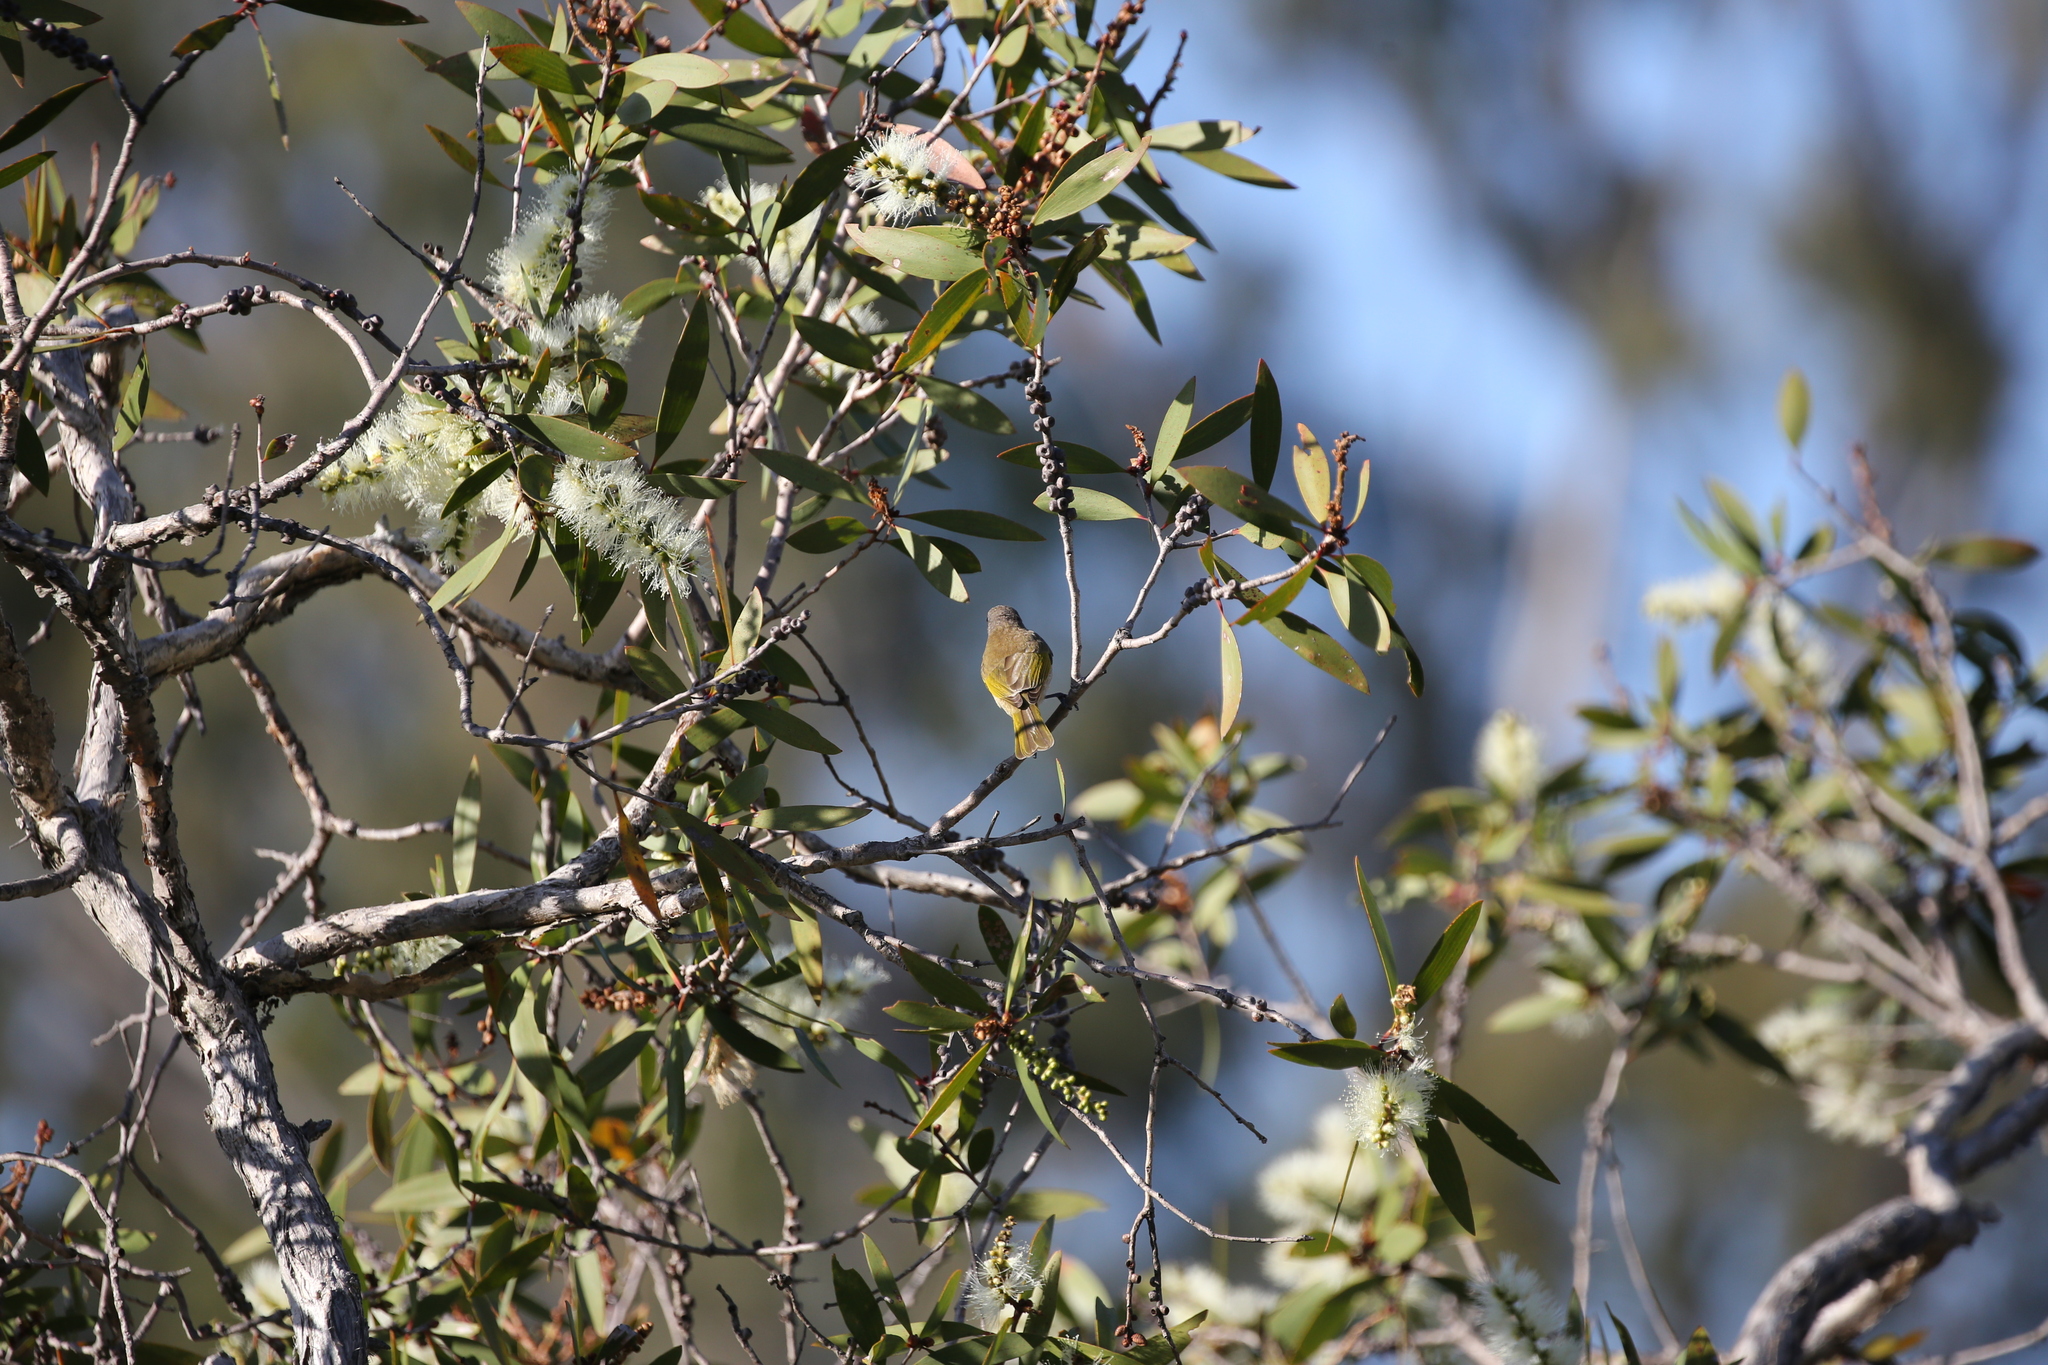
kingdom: Animalia
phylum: Chordata
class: Aves
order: Passeriformes
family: Meliphagidae
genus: Lichmera
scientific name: Lichmera indistincta
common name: Brown honeyeater
